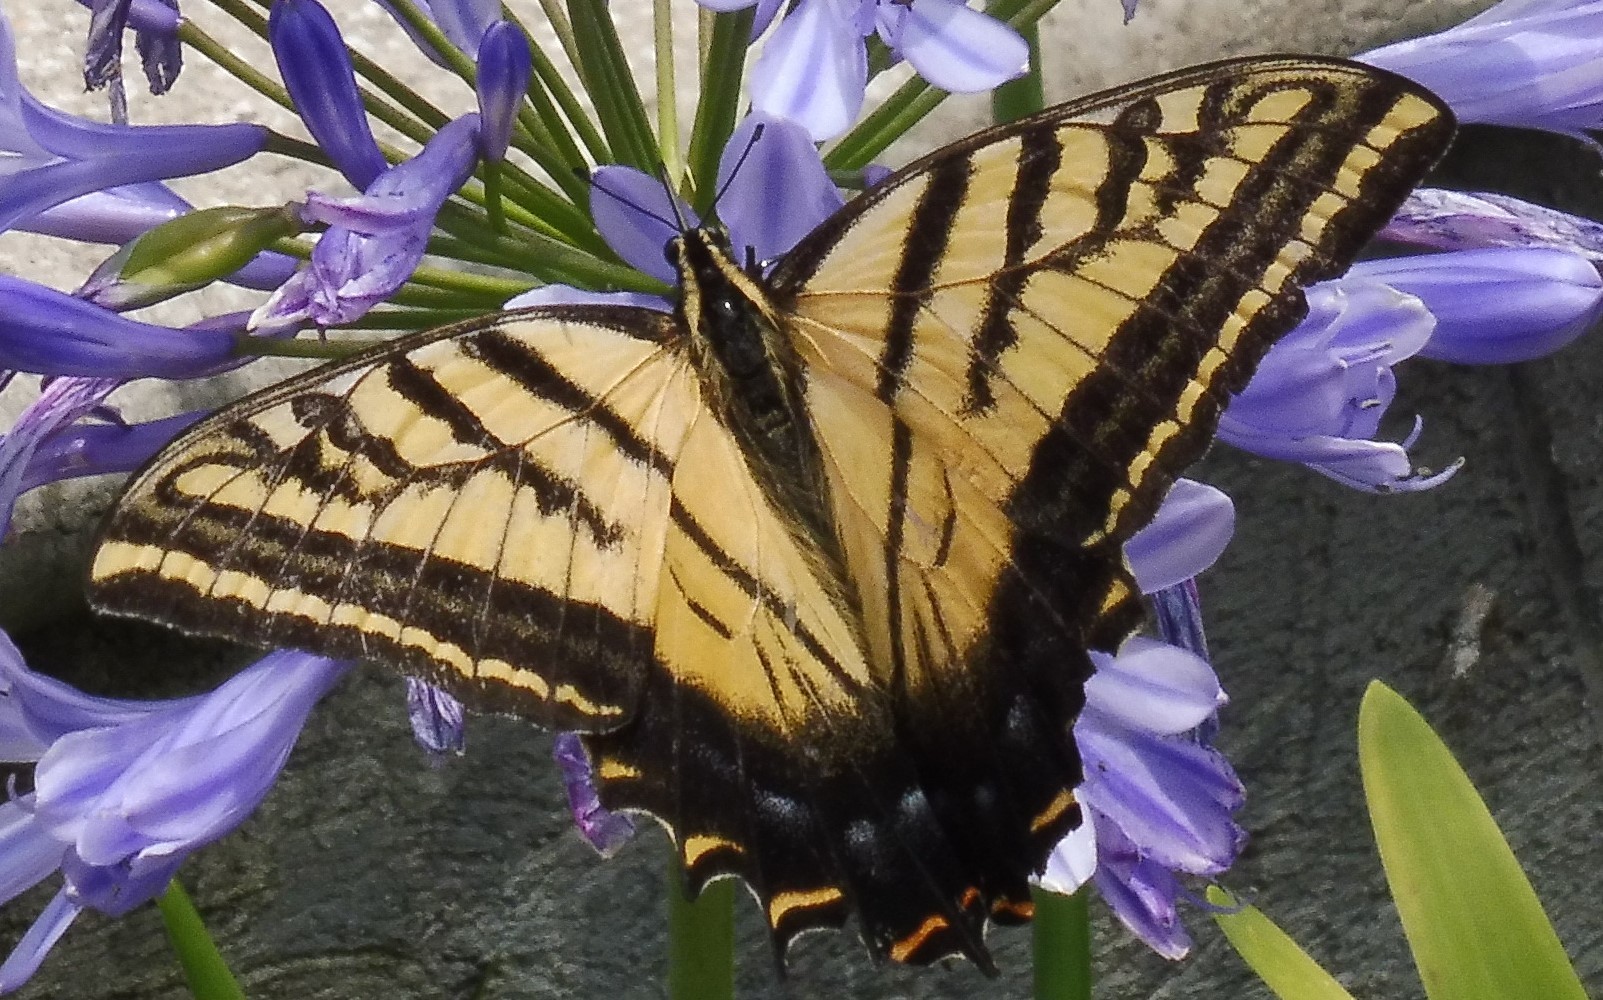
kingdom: Animalia
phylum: Arthropoda
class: Insecta
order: Lepidoptera
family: Papilionidae
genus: Papilio
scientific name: Papilio multicaudata
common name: Two-tailed tiger swallowtail
